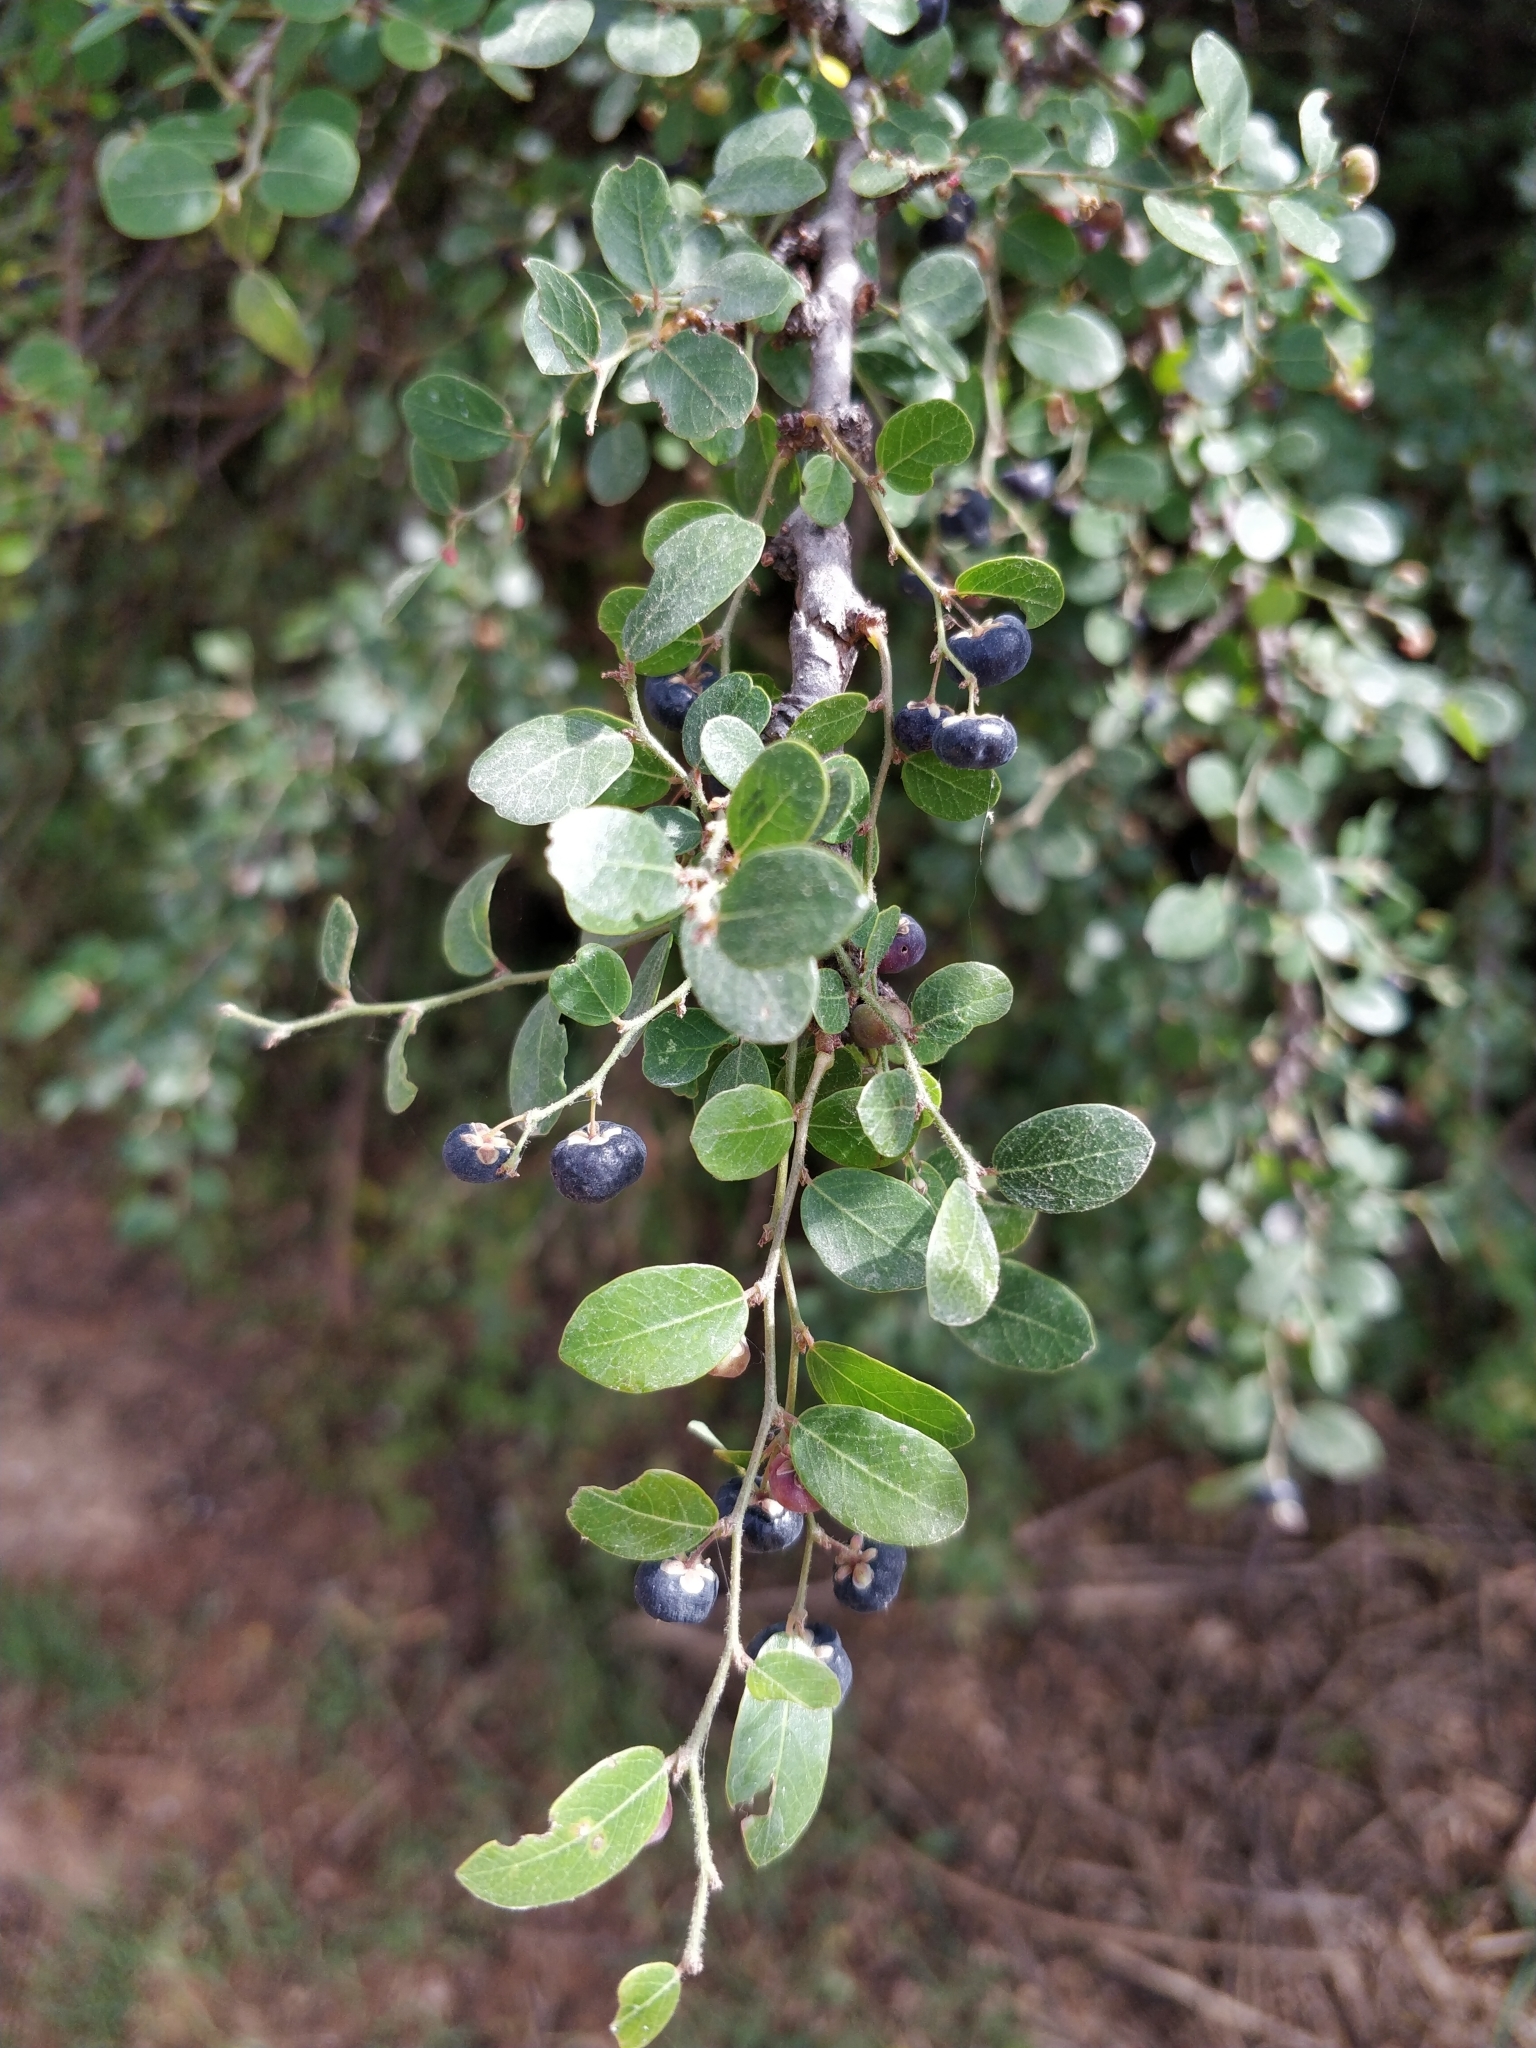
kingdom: Plantae
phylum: Tracheophyta
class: Magnoliopsida
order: Malpighiales
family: Phyllanthaceae
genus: Phyllanthus
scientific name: Phyllanthus reticulatus
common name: Potato bush
